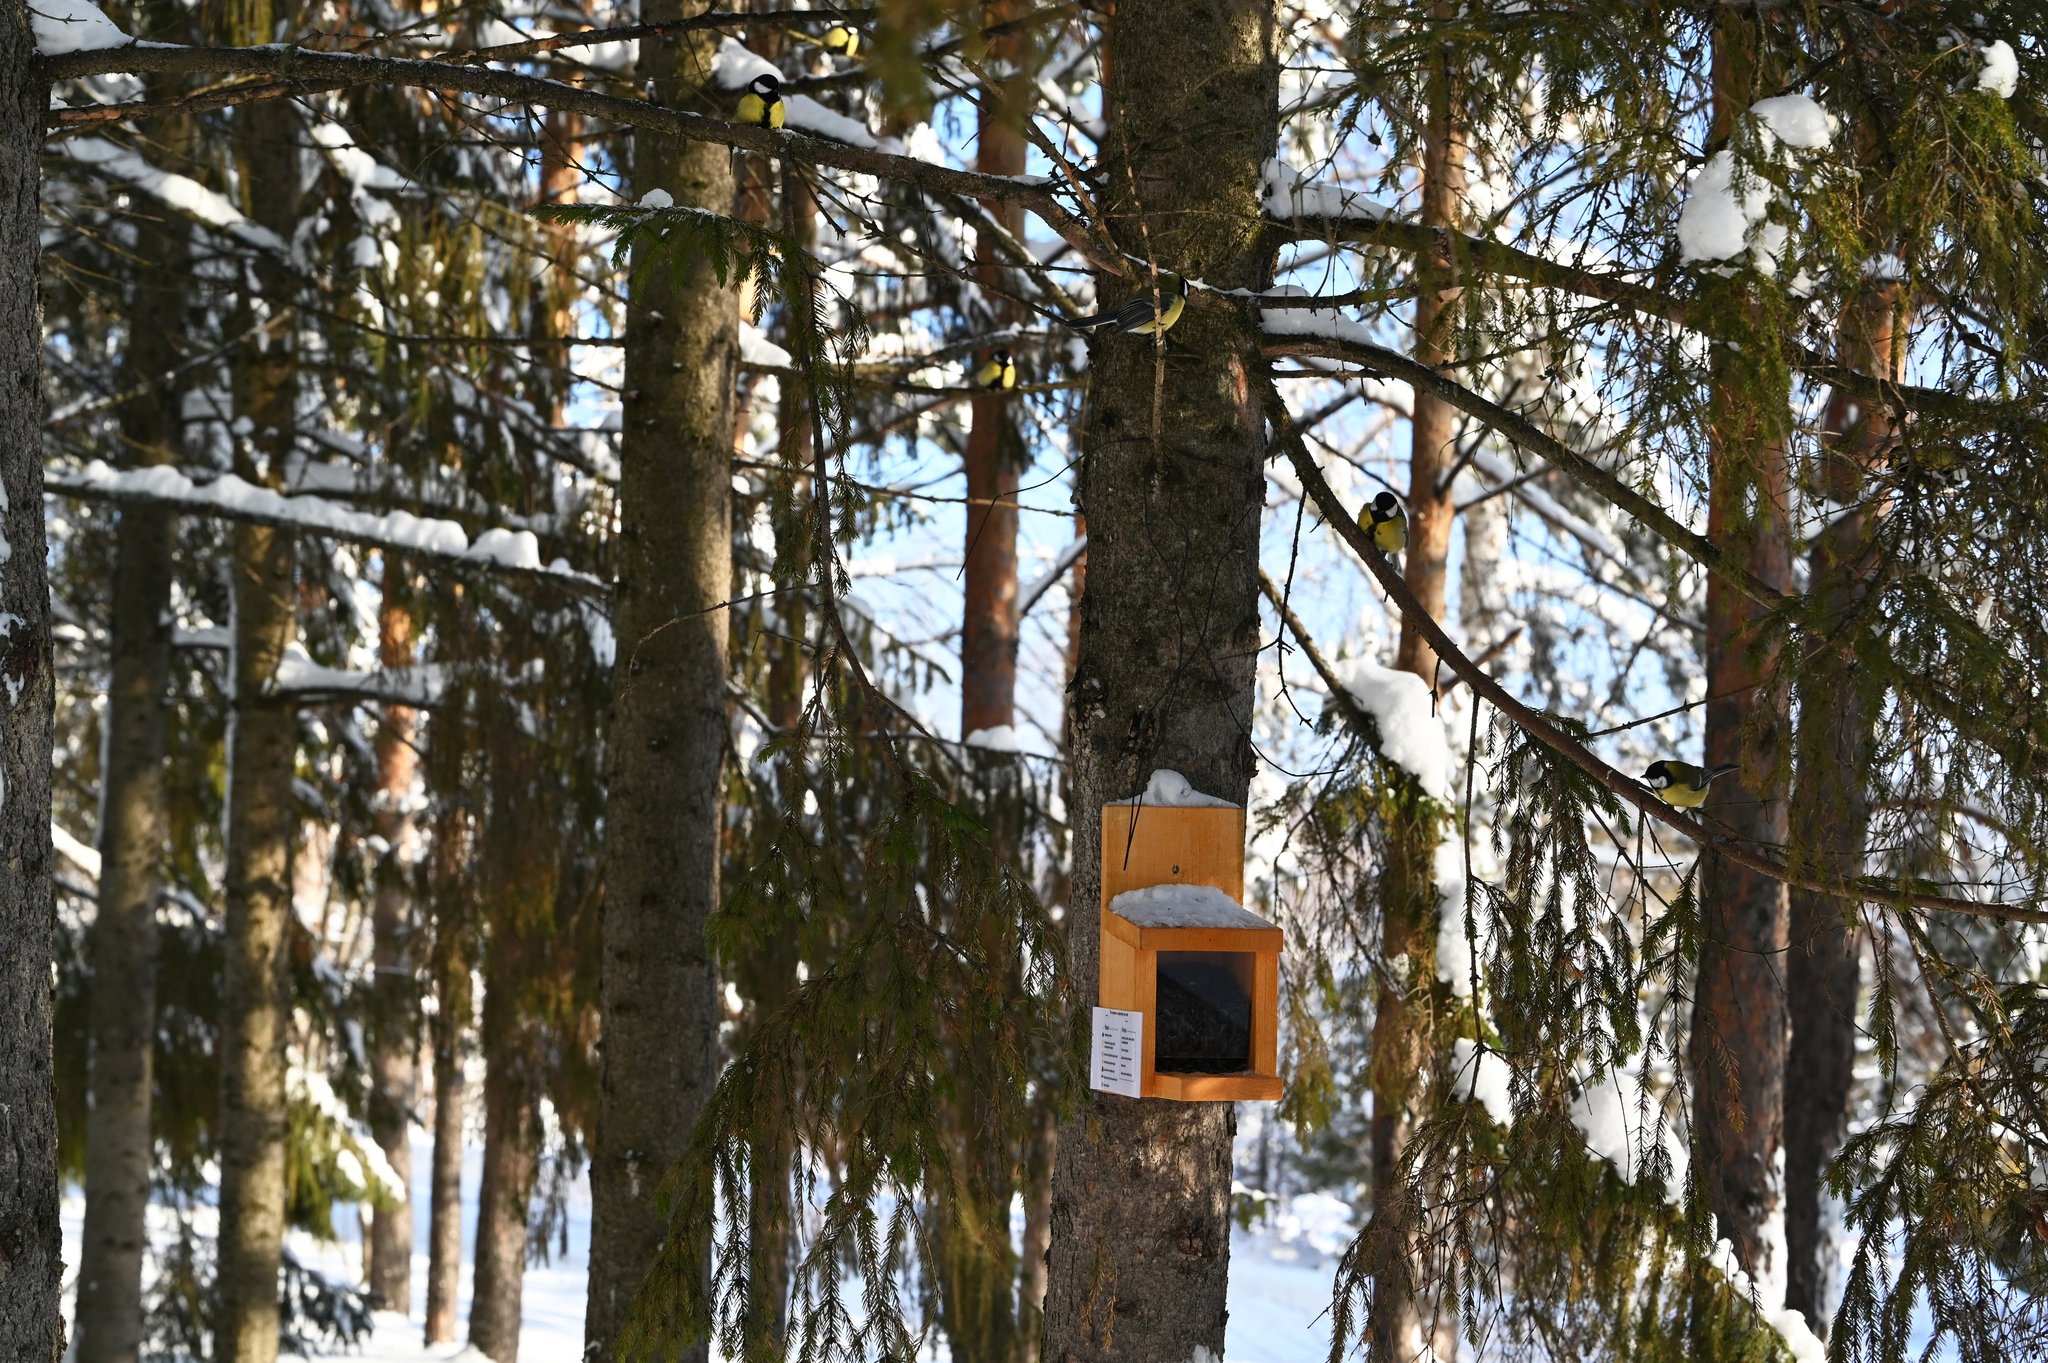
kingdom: Animalia
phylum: Chordata
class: Aves
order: Passeriformes
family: Paridae
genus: Parus
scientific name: Parus major
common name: Great tit
